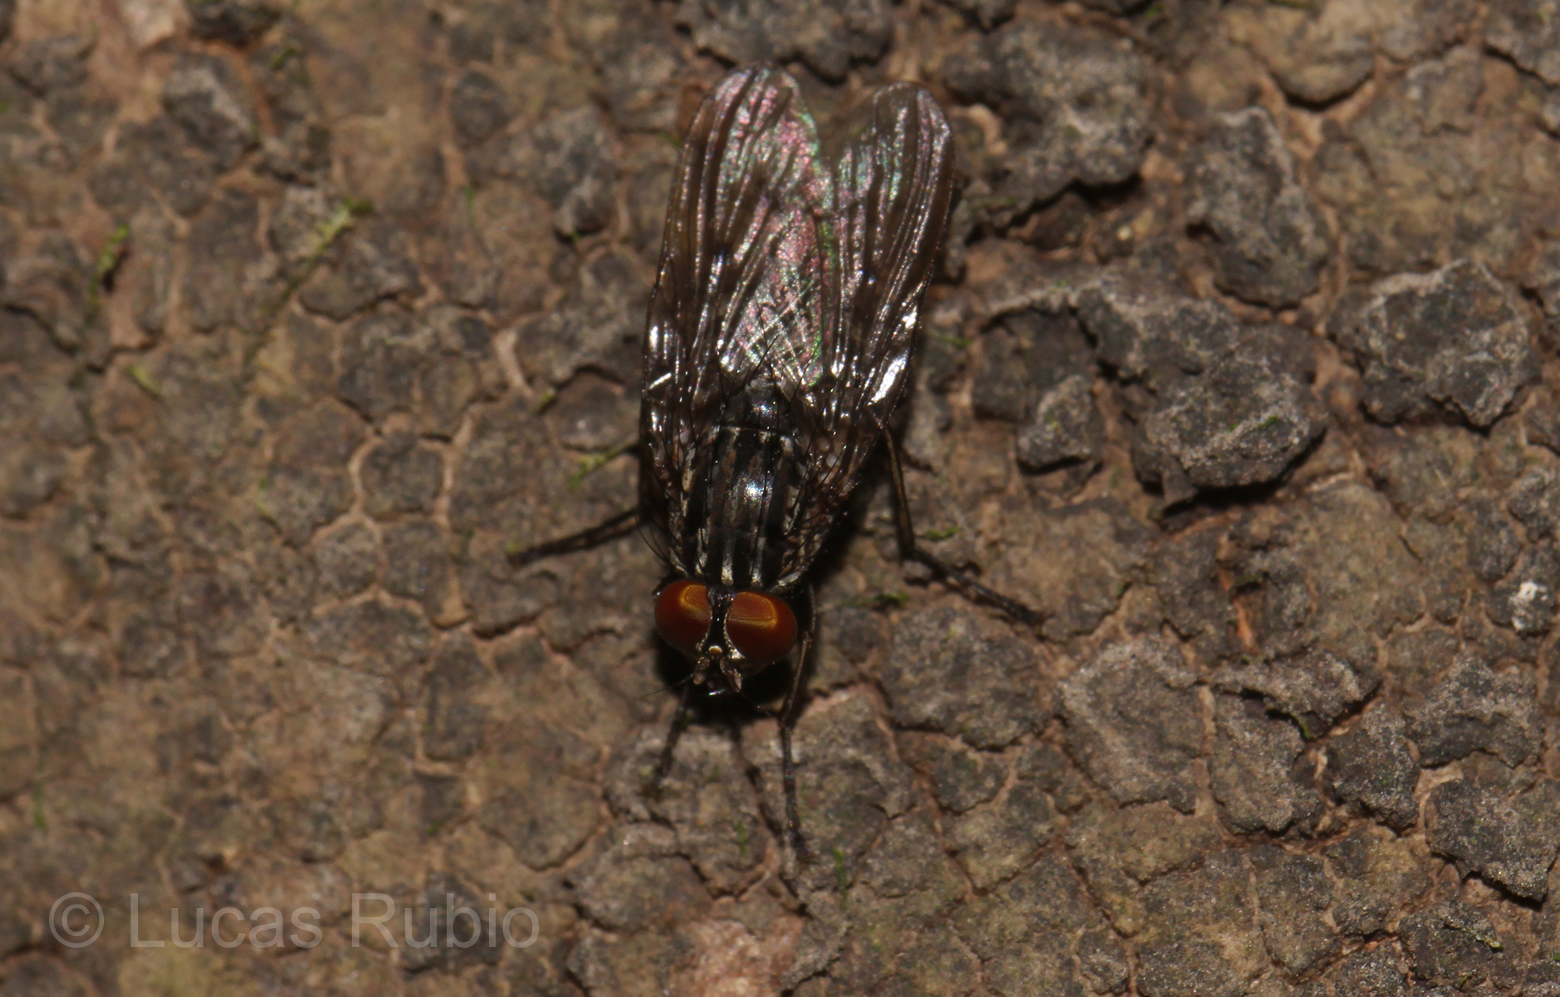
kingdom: Animalia
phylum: Arthropoda
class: Insecta
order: Diptera
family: Muscidae
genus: Neurotrixa
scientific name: Neurotrixa felsina
